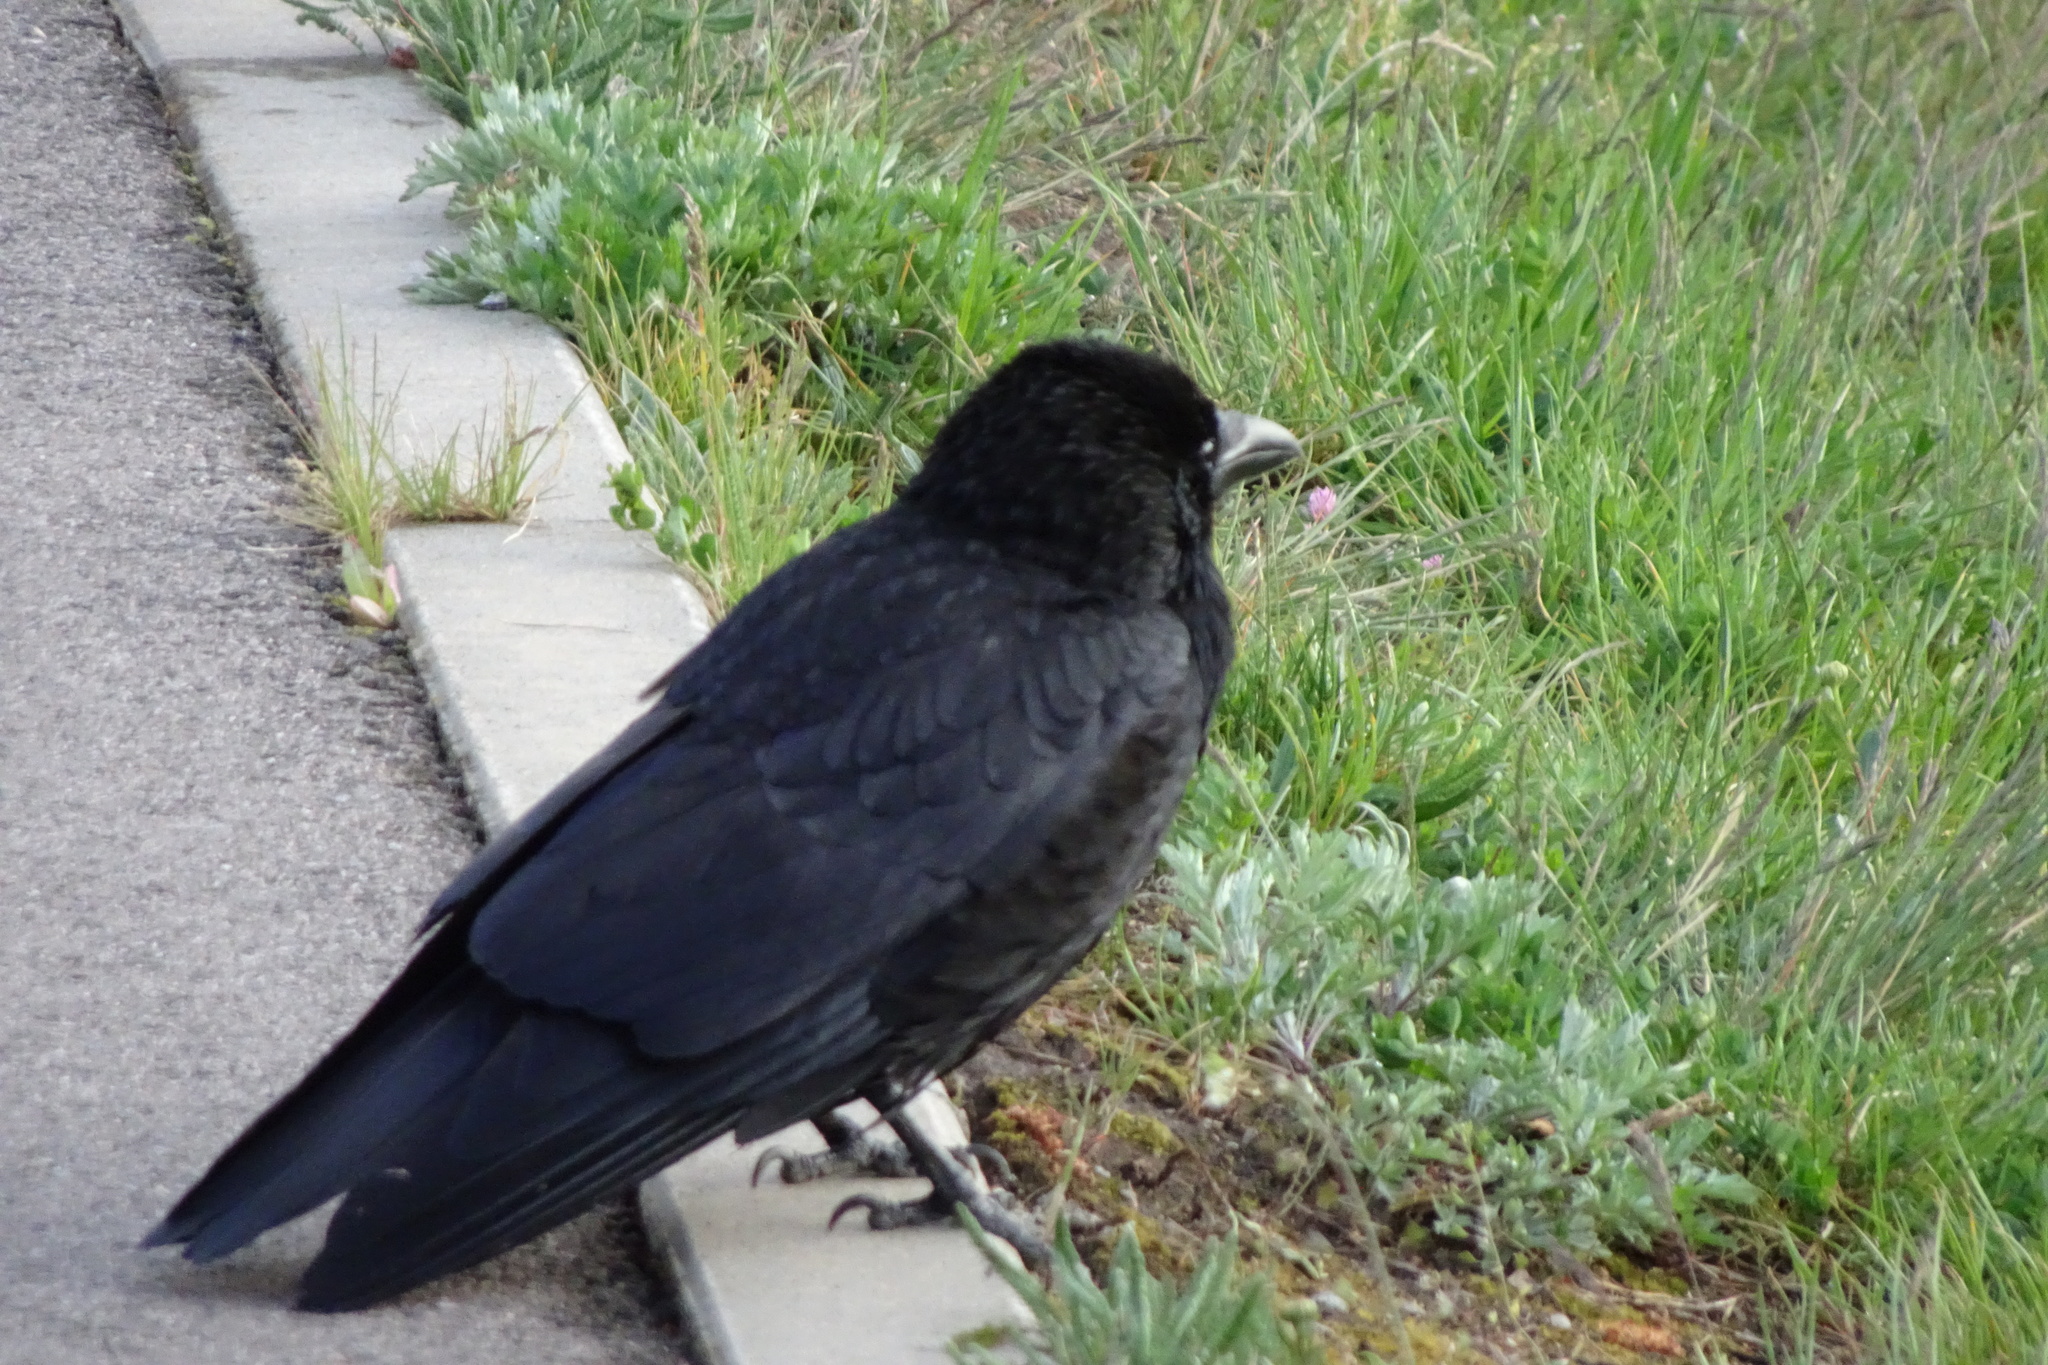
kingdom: Animalia
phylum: Chordata
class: Aves
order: Passeriformes
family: Corvidae
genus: Corvus
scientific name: Corvus frugilegus
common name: Rook
